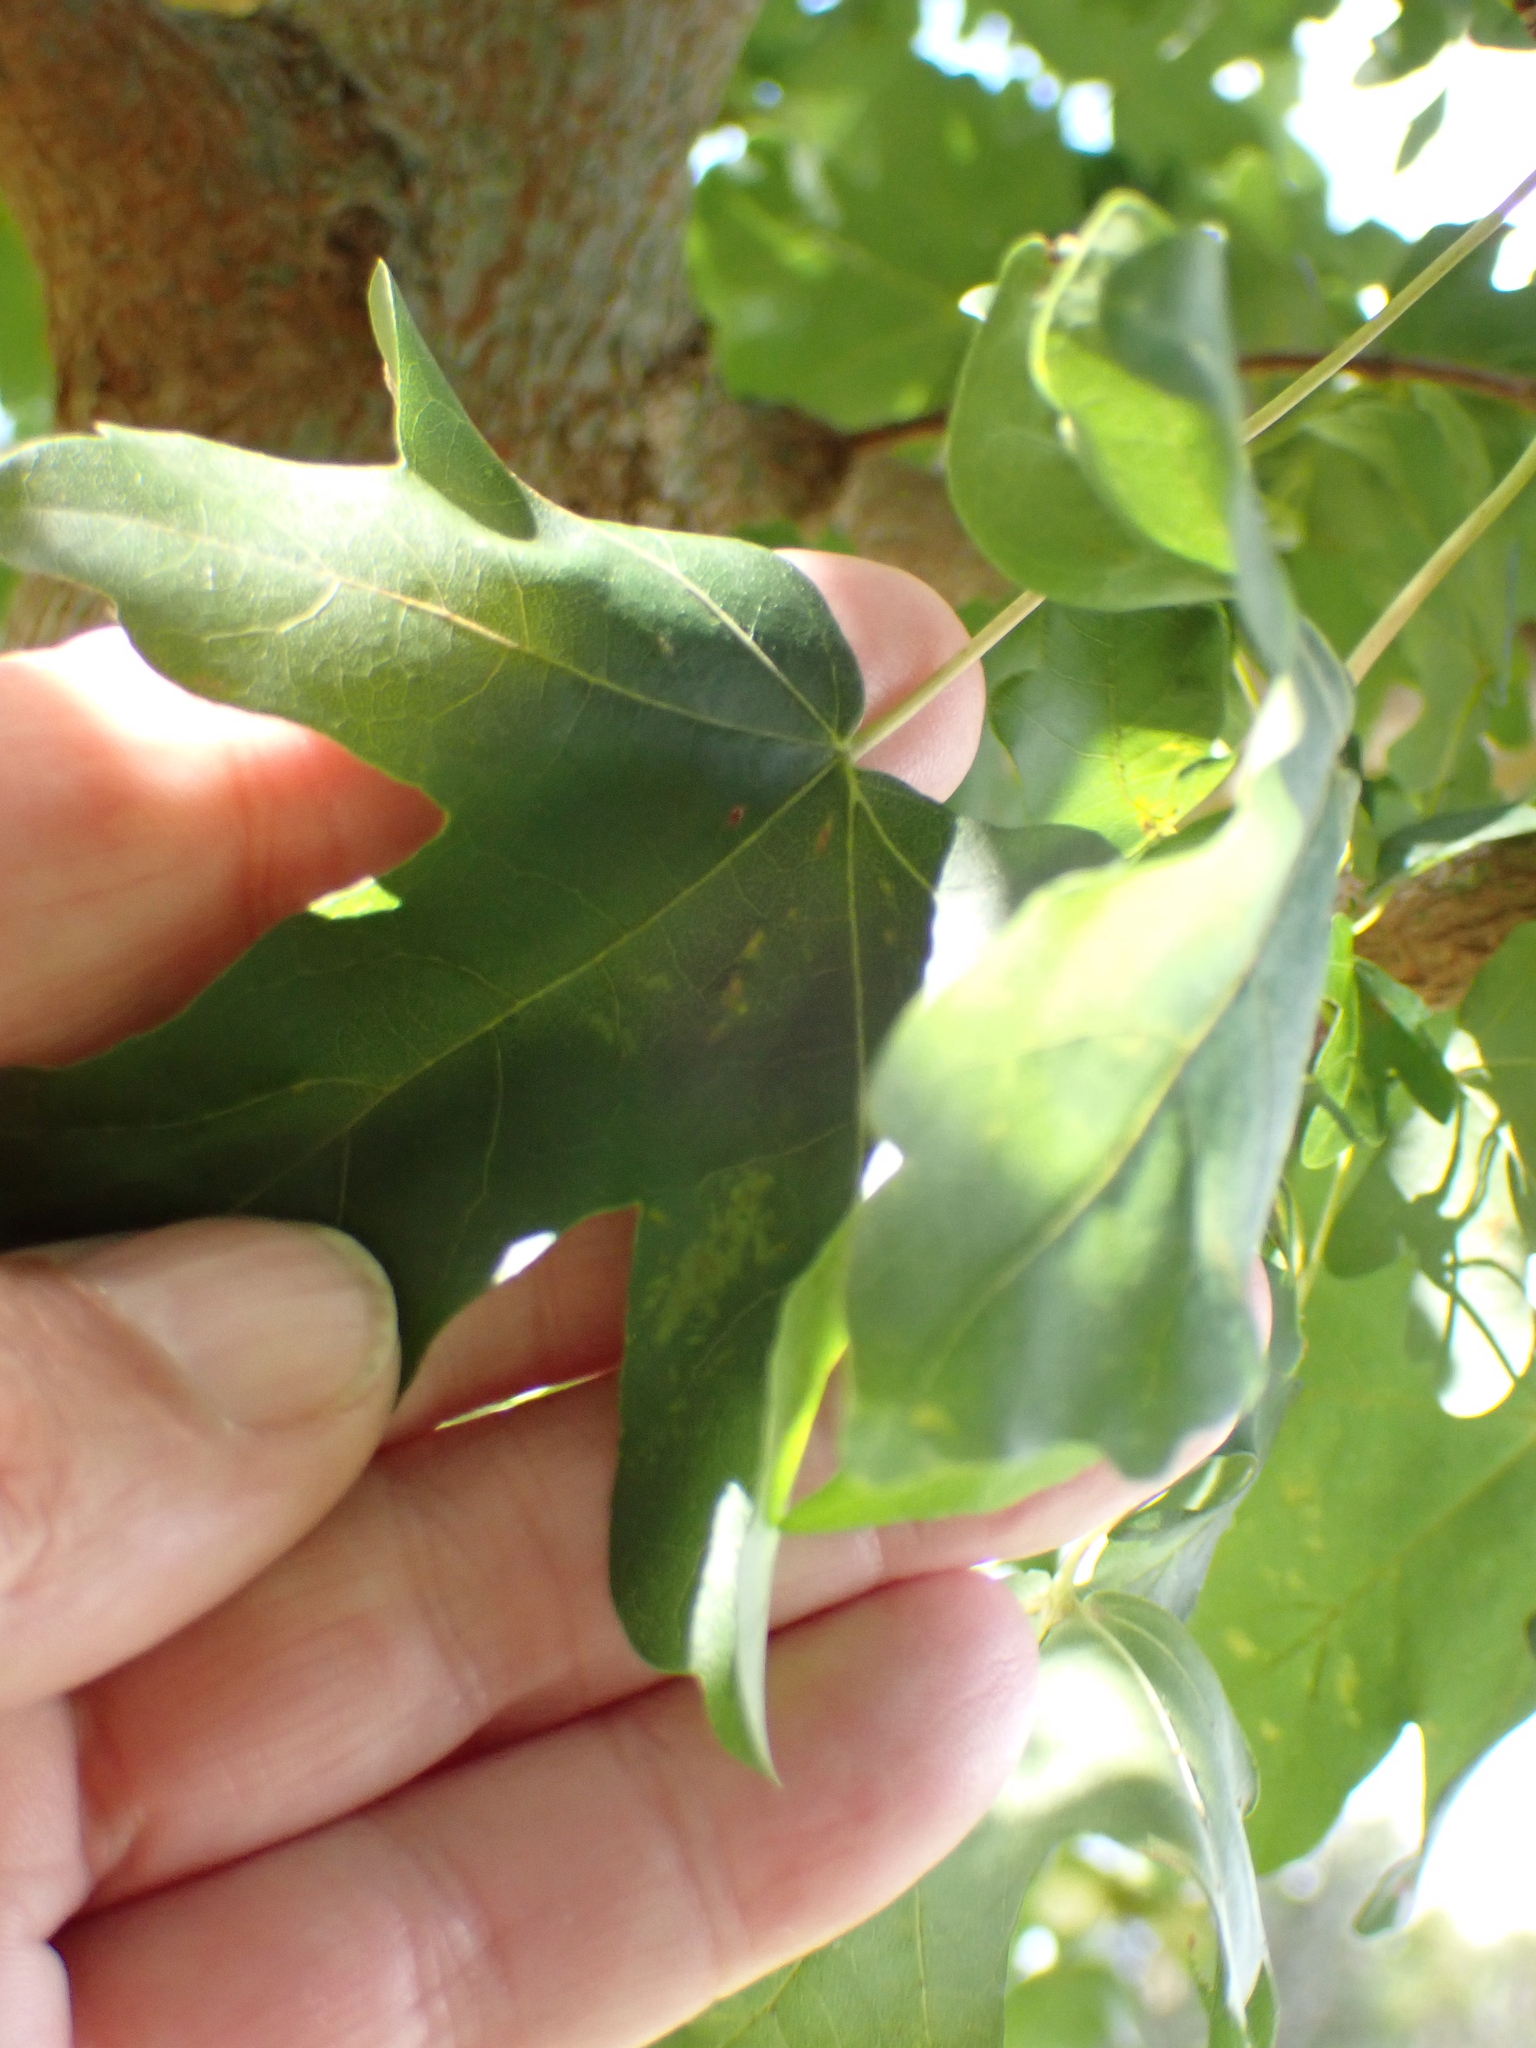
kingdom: Plantae
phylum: Tracheophyta
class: Magnoliopsida
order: Sapindales
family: Sapindaceae
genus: Acer
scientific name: Acer campestre
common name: Field maple
